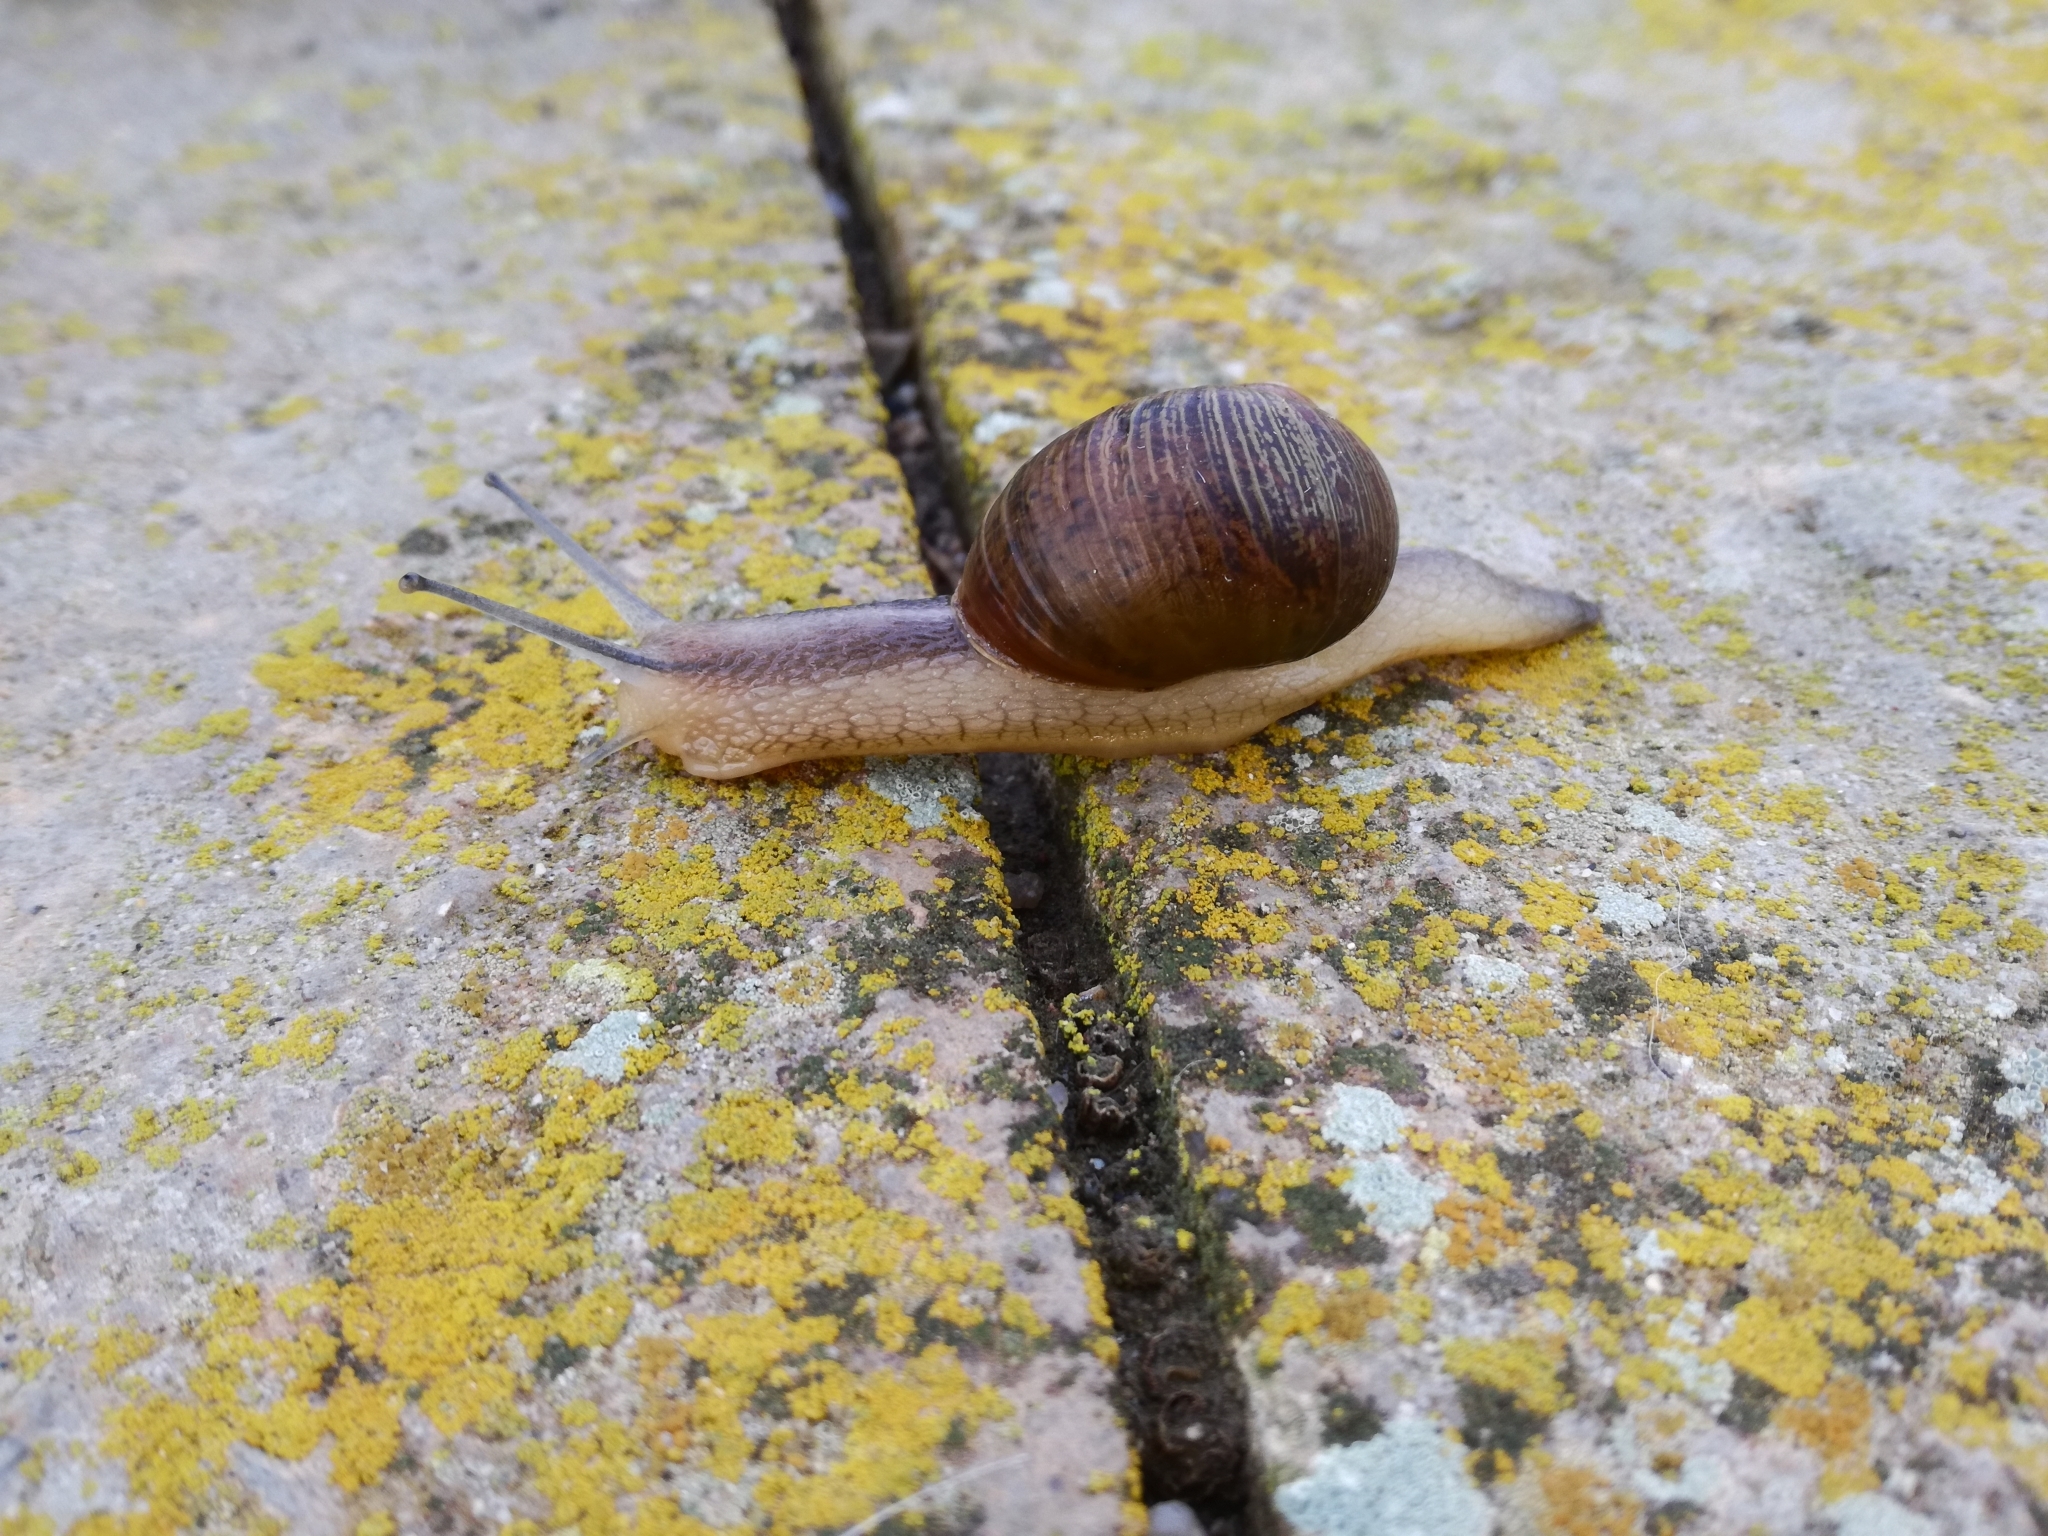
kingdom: Animalia
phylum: Mollusca
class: Gastropoda
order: Stylommatophora
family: Helicidae
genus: Cantareus
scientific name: Cantareus apertus
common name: Green gardensnail
